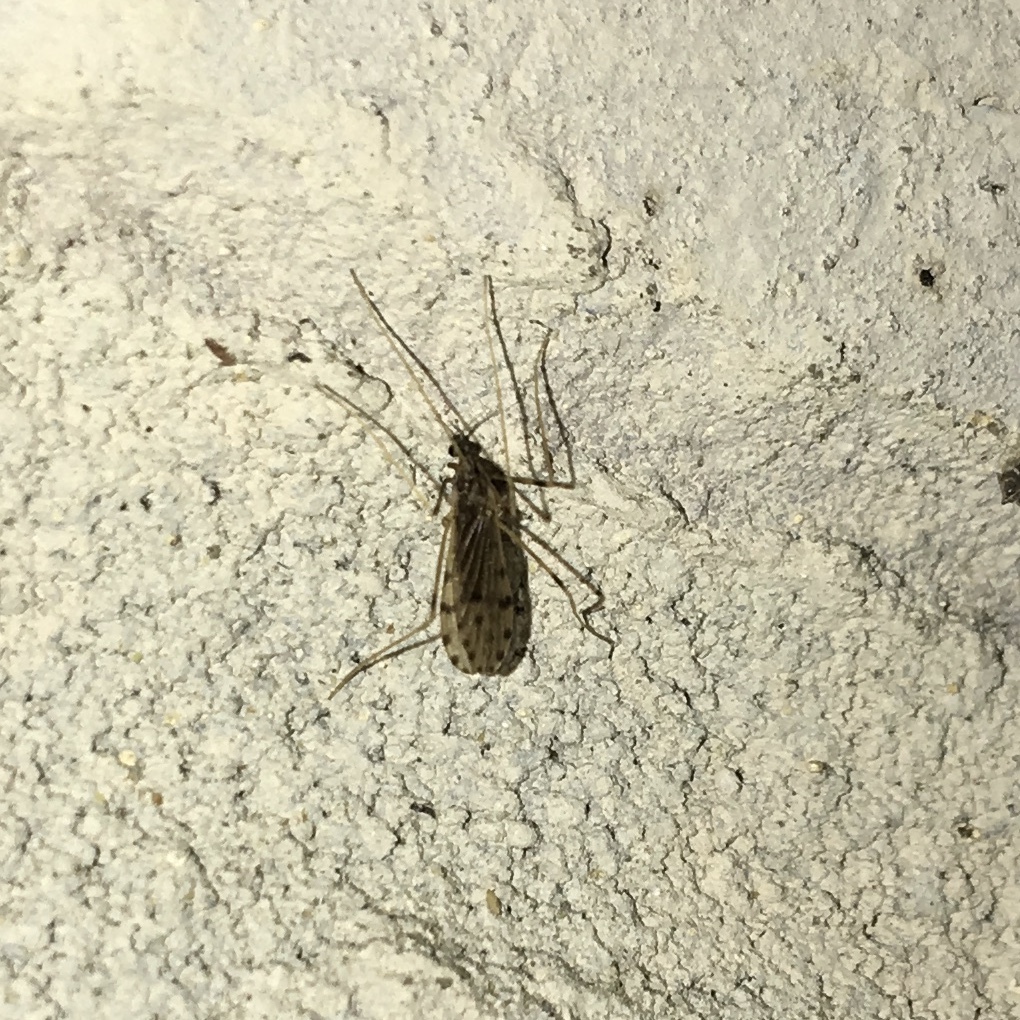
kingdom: Animalia
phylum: Arthropoda
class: Insecta
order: Diptera
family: Limoniidae
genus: Erioptera
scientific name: Erioptera parva
